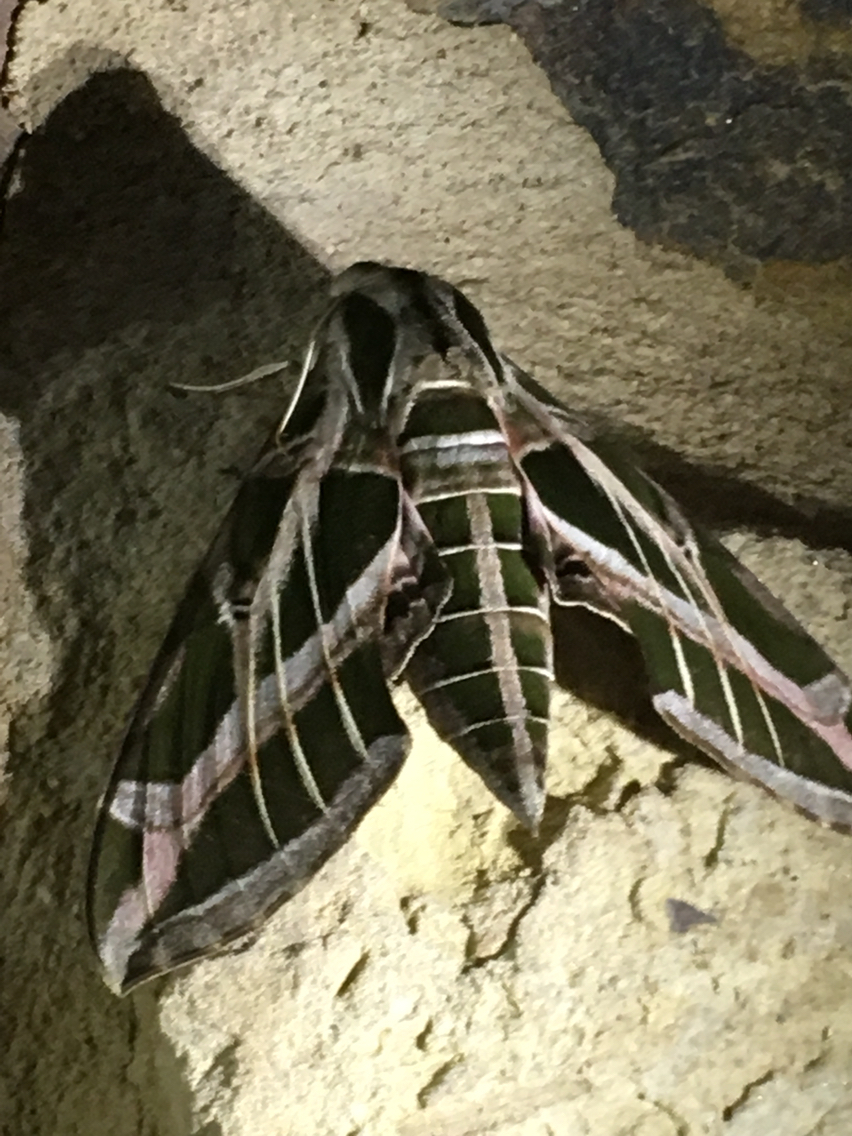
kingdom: Animalia
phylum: Arthropoda
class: Insecta
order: Lepidoptera
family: Sphingidae
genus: Eumorpha
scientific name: Eumorpha vitis
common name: Vine sphinx
